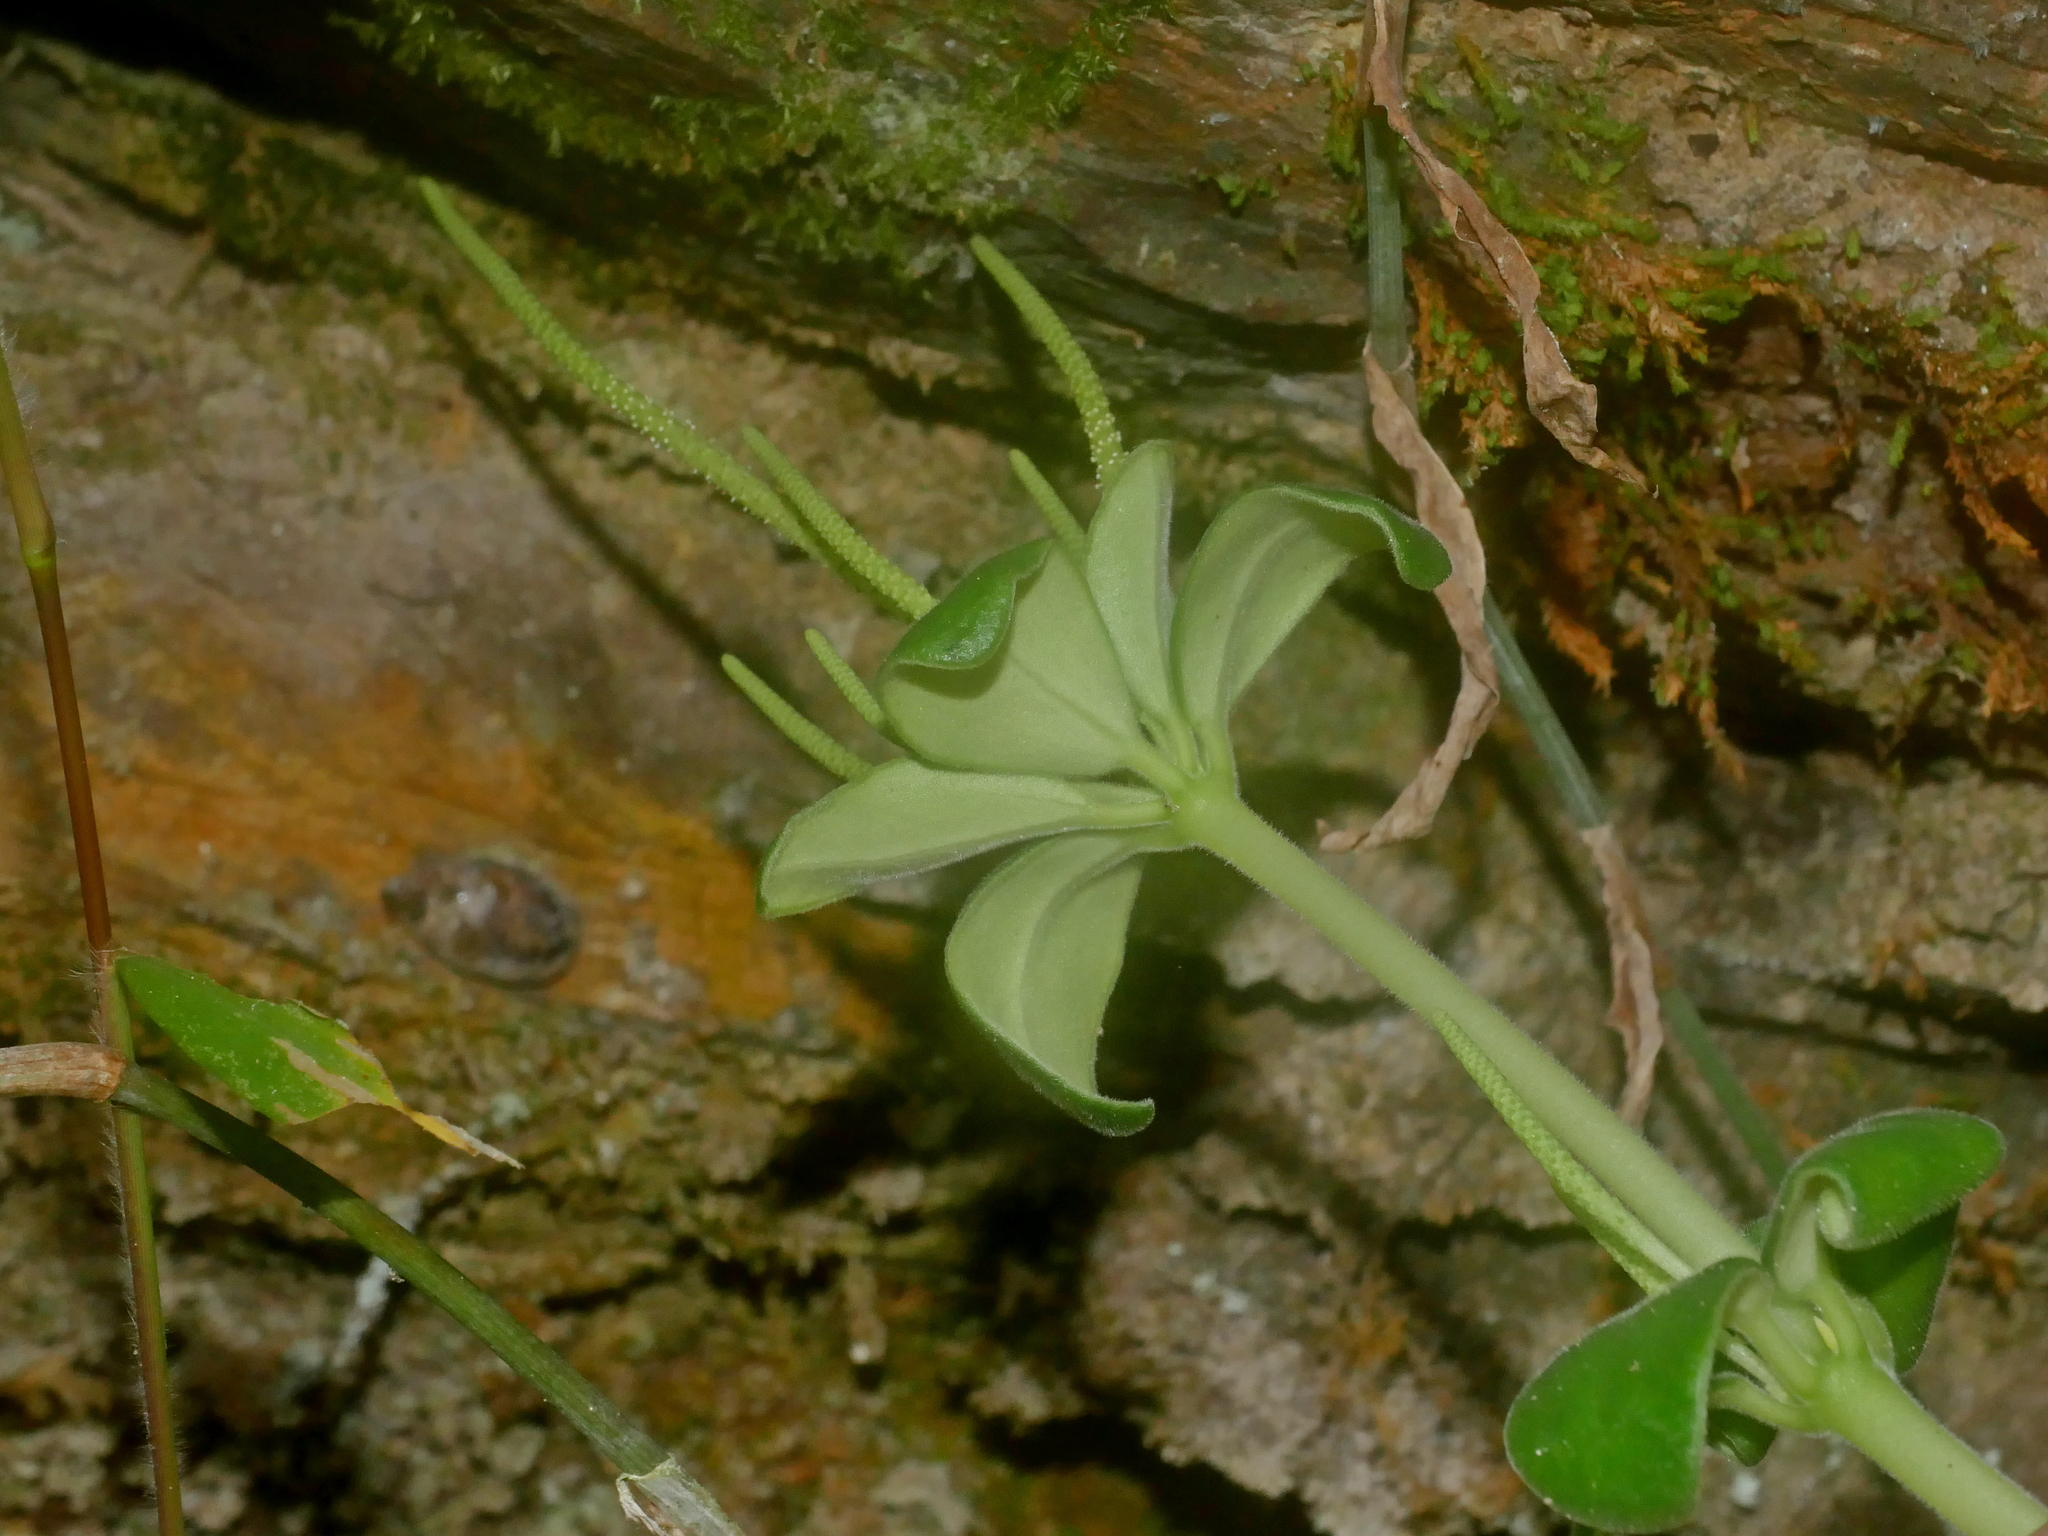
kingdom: Plantae
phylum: Tracheophyta
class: Magnoliopsida
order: Piperales
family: Piperaceae
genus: Peperomia
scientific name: Peperomia japonica
